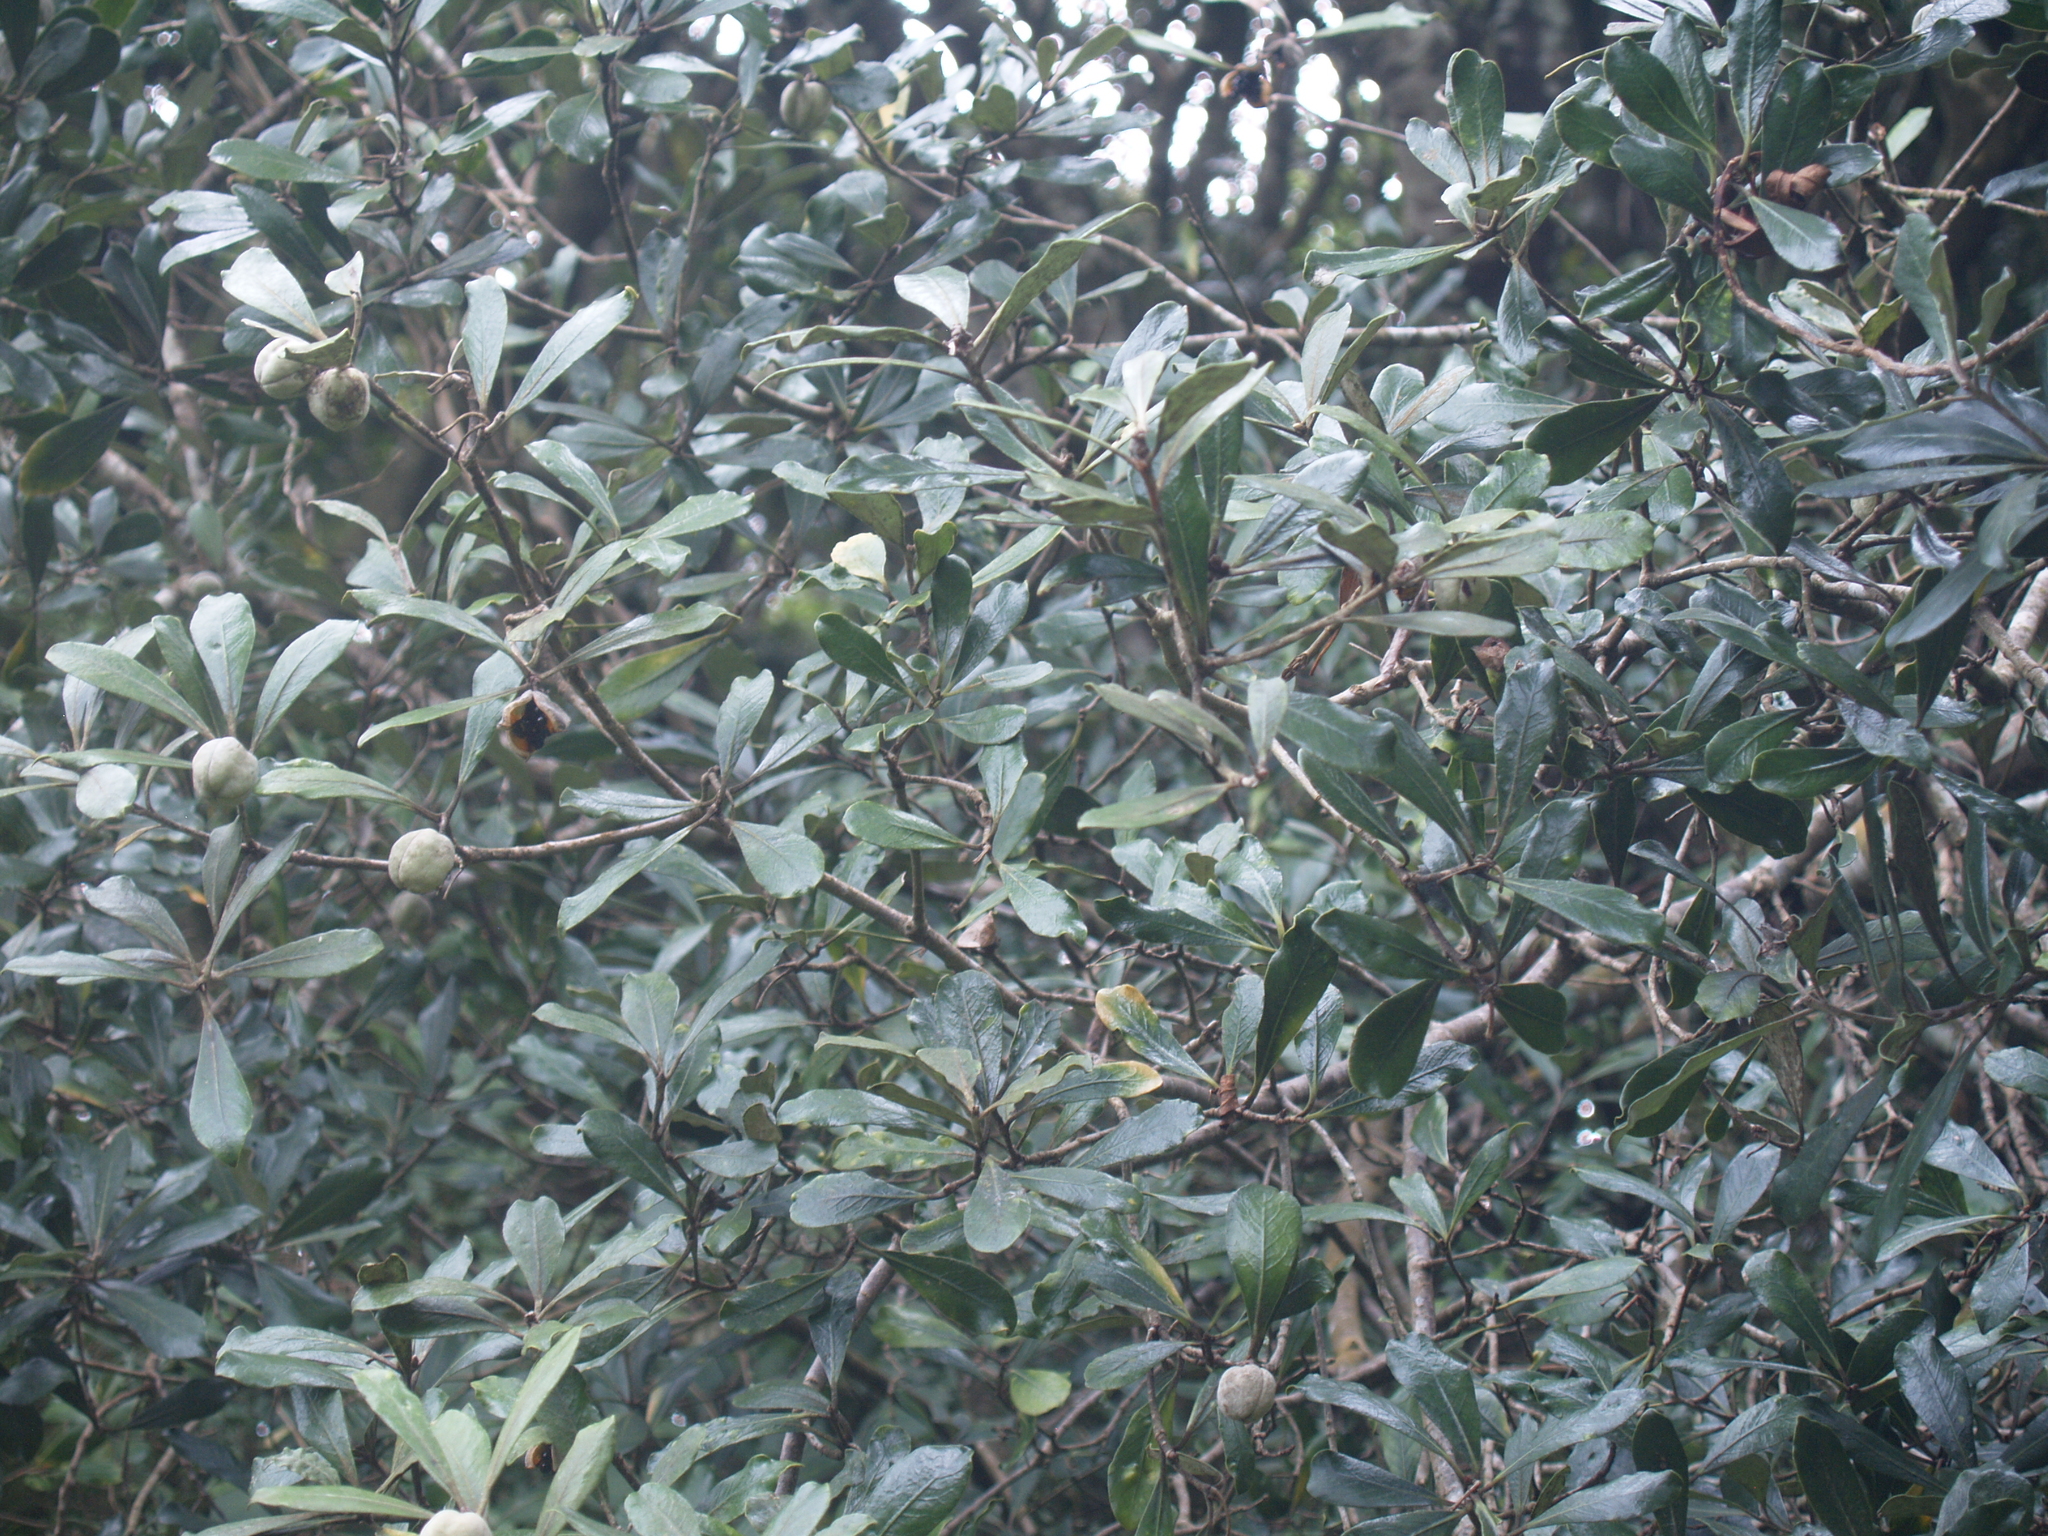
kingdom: Plantae
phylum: Tracheophyta
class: Magnoliopsida
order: Apiales
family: Pittosporaceae
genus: Pittosporum
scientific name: Pittosporum crassifolium
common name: Karo
